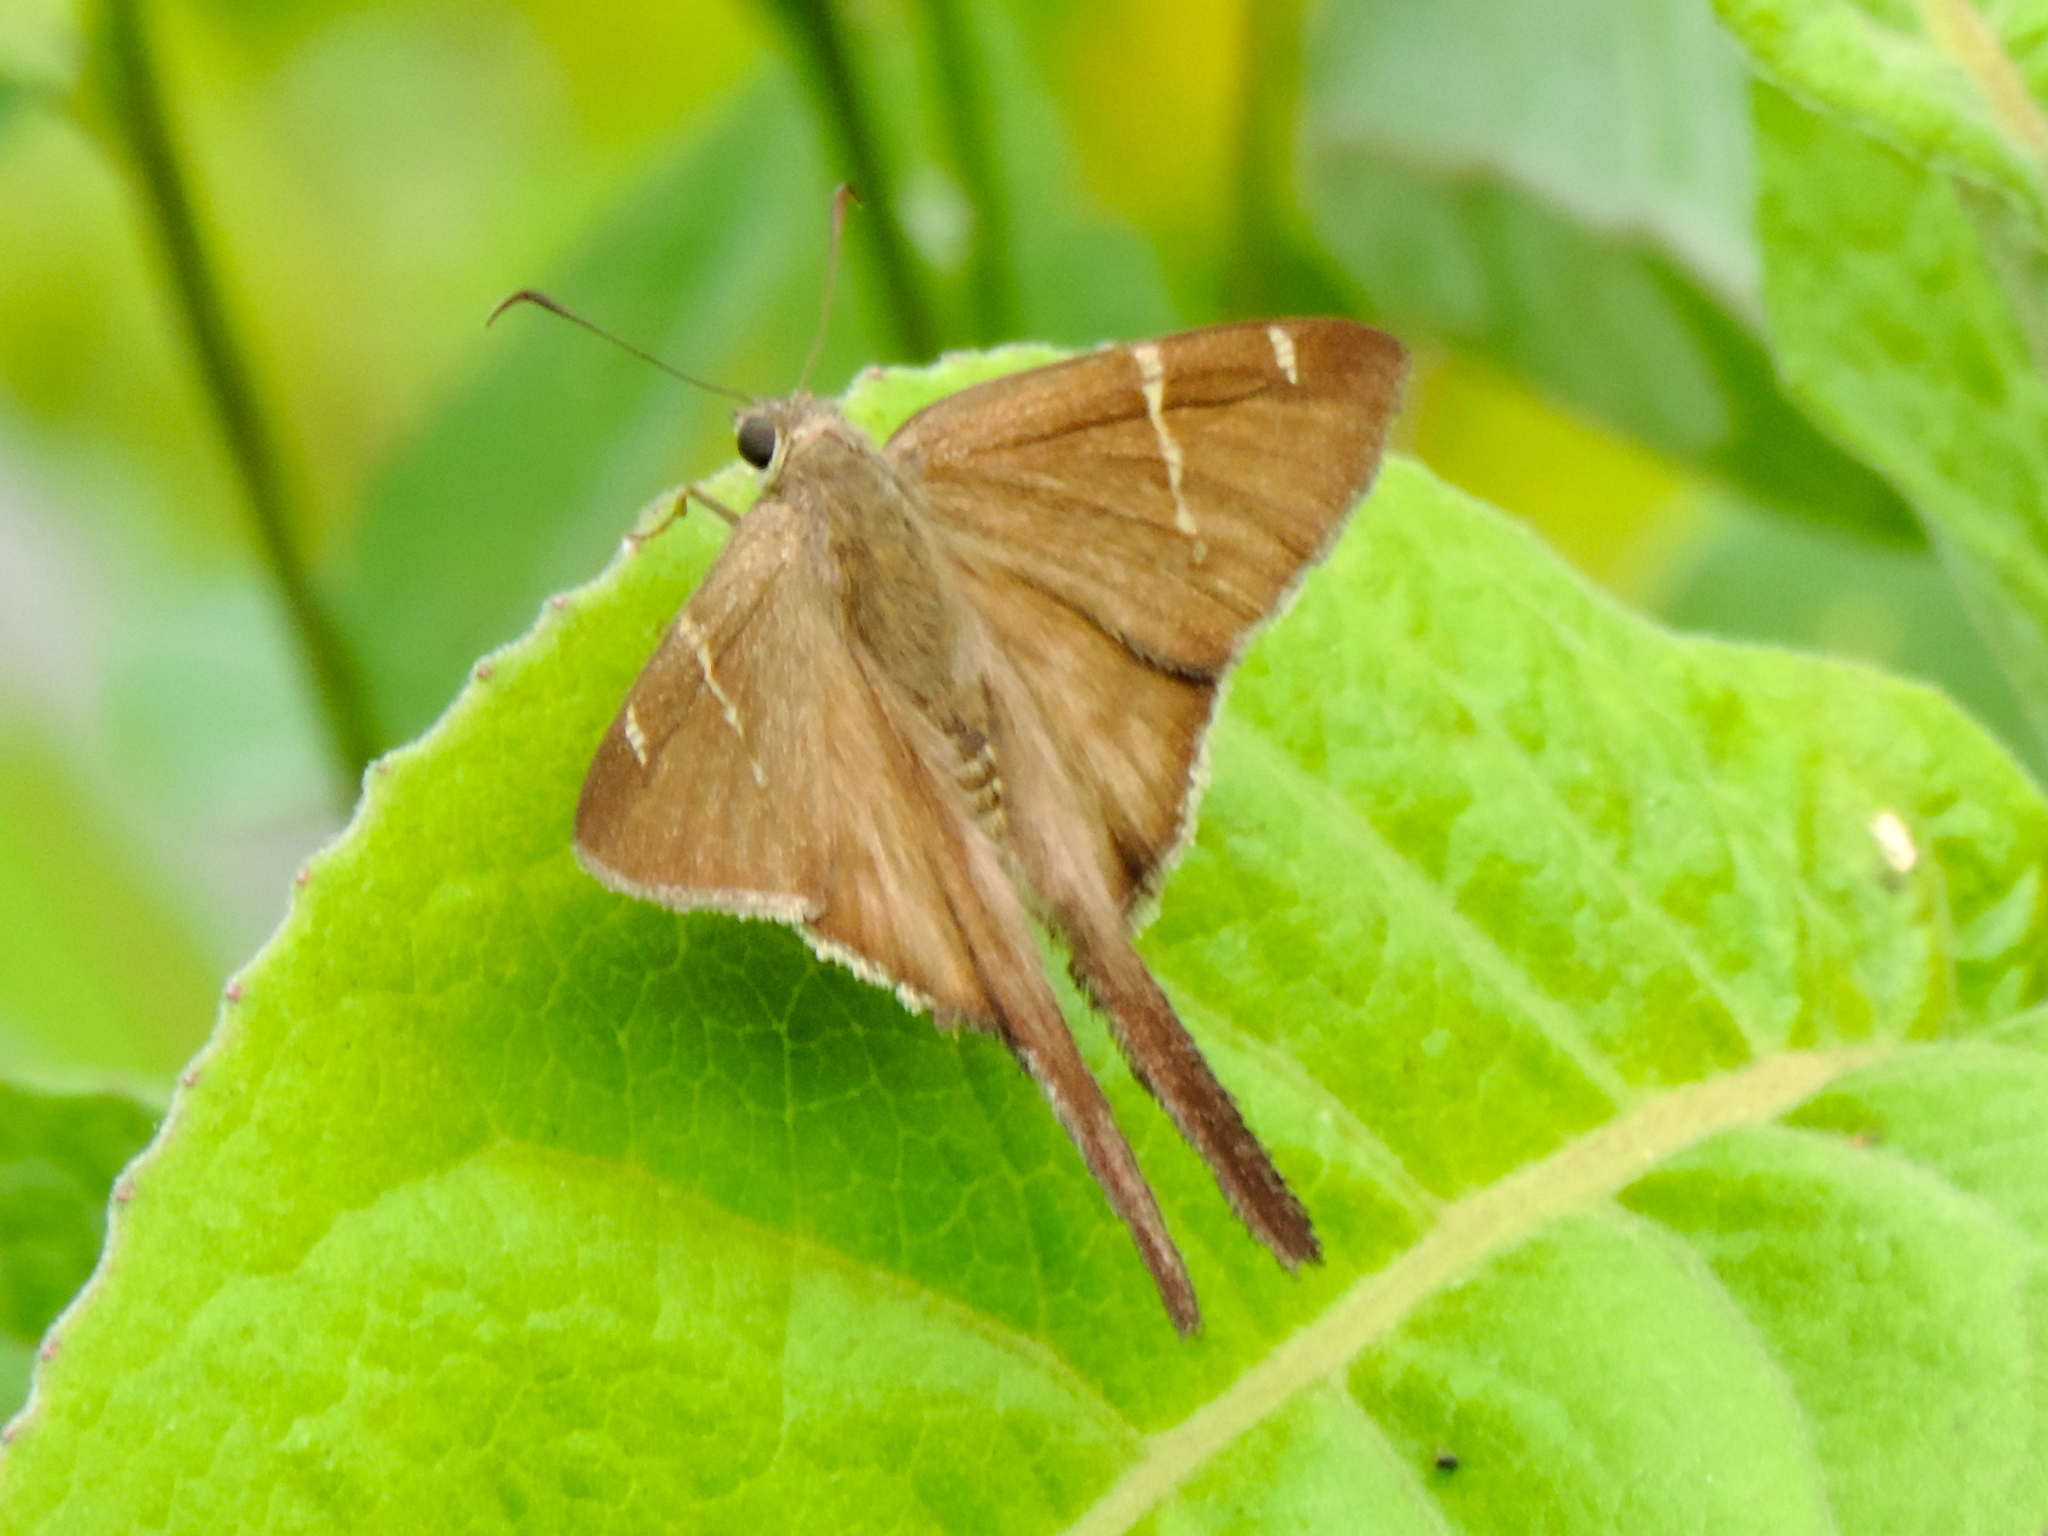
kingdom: Animalia
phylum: Arthropoda
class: Insecta
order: Lepidoptera
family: Hesperiidae
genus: Urbanus
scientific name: Urbanus procne
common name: Brown longtail
